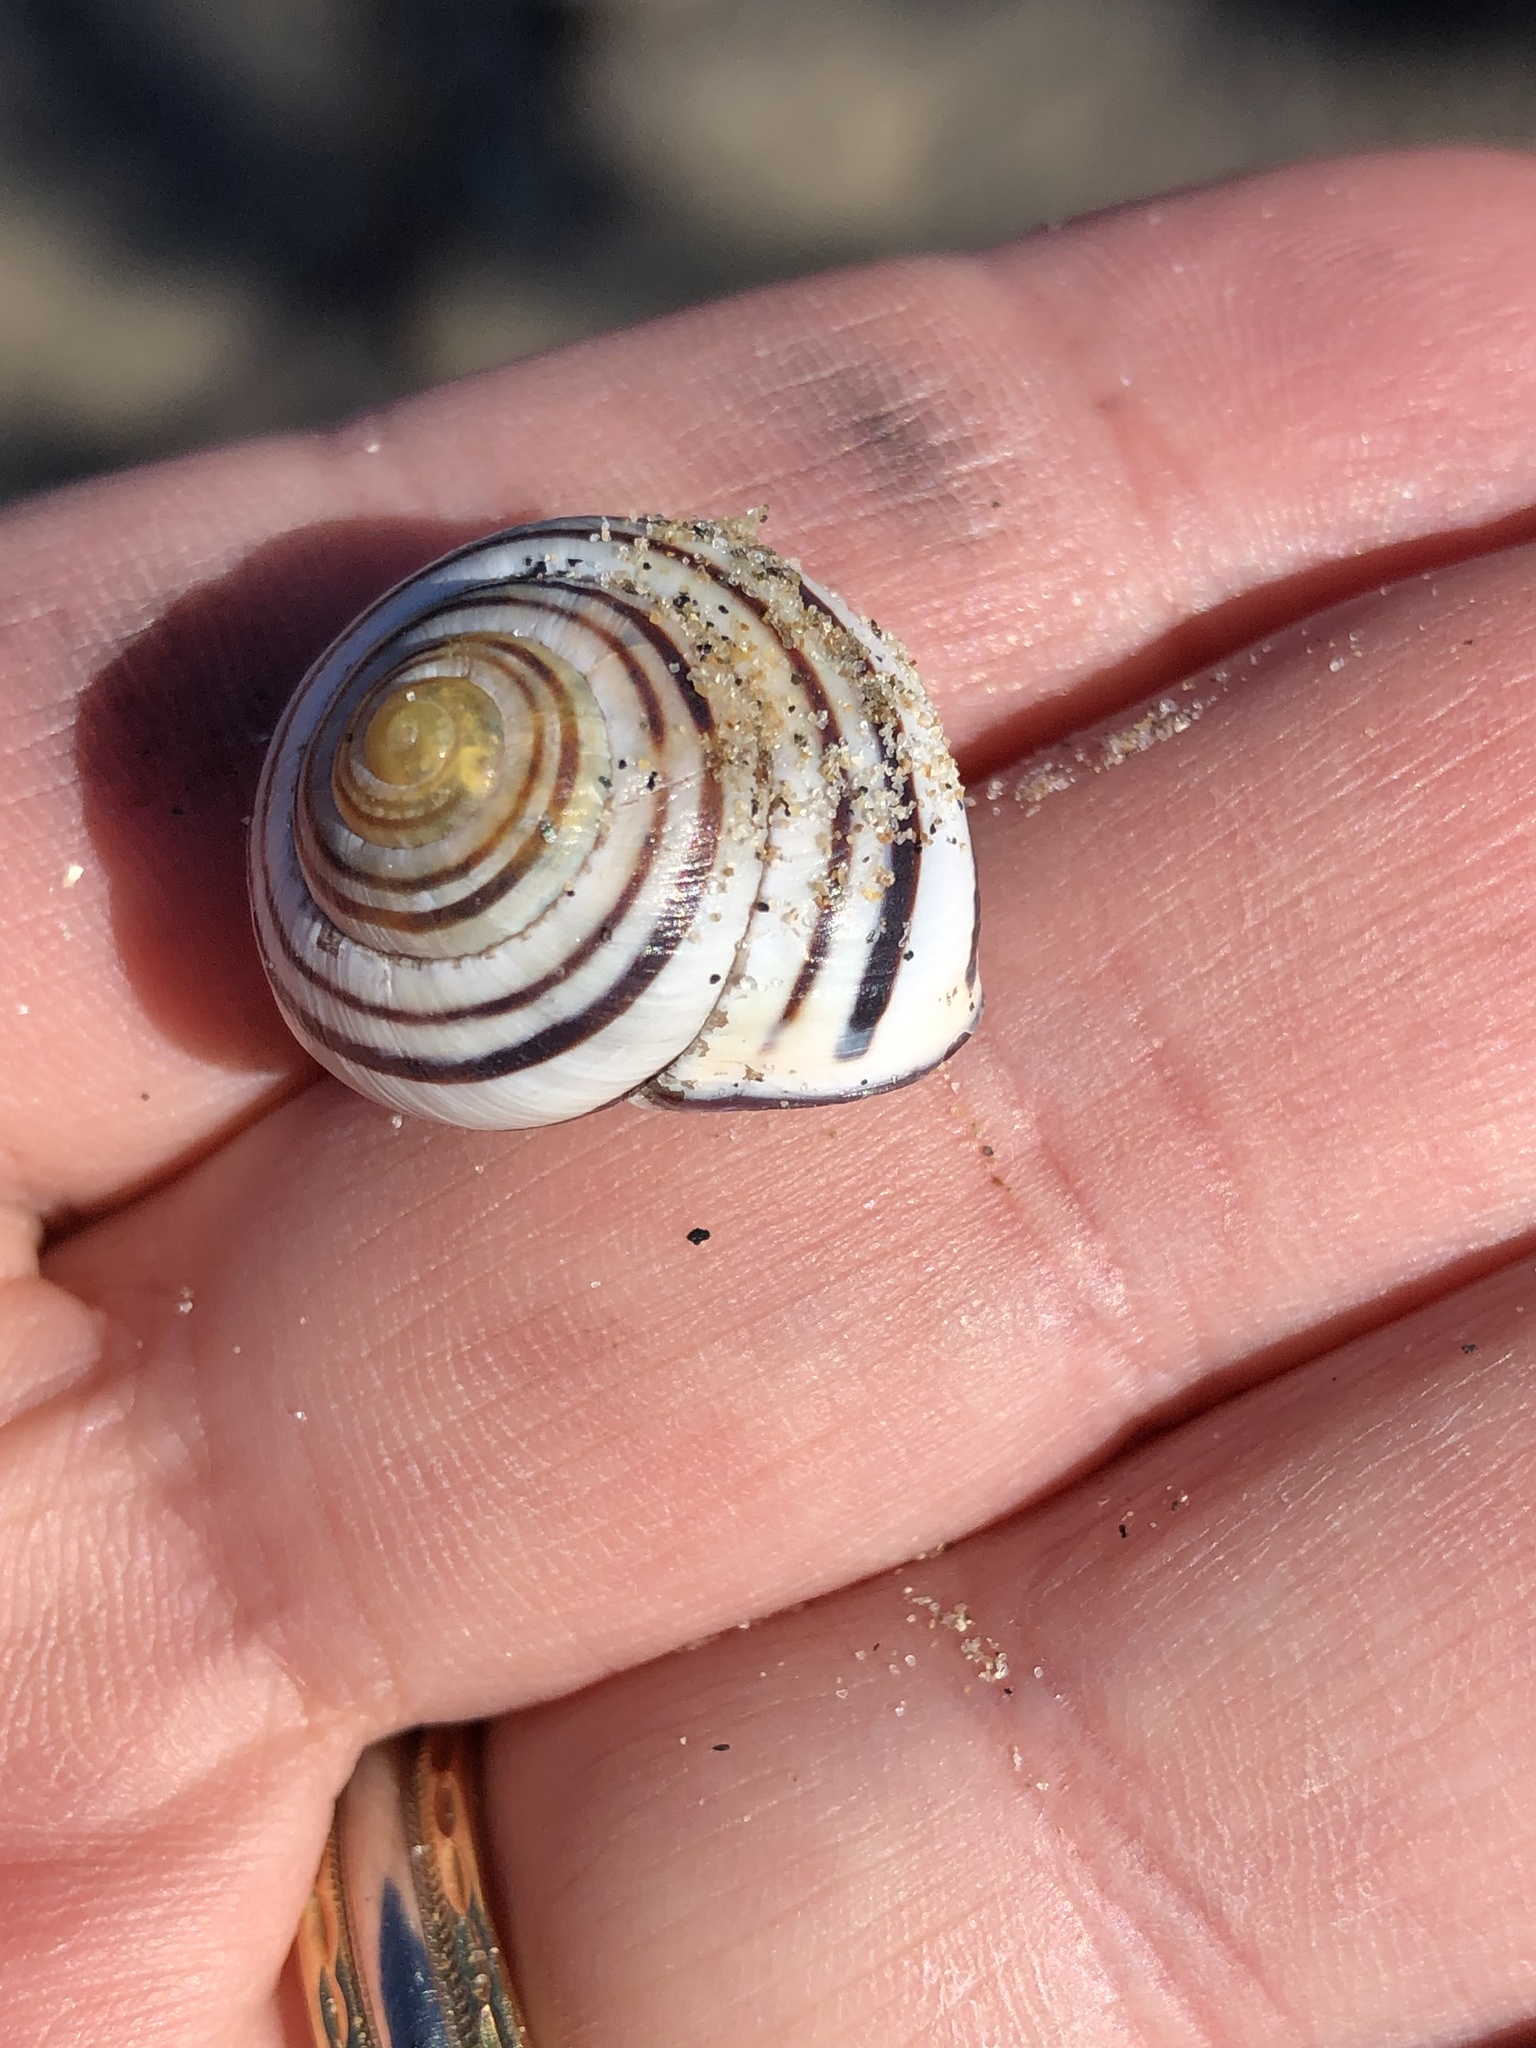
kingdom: Animalia
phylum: Mollusca
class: Gastropoda
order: Stylommatophora
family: Helicidae
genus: Cepaea
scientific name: Cepaea nemoralis
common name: Grovesnail
